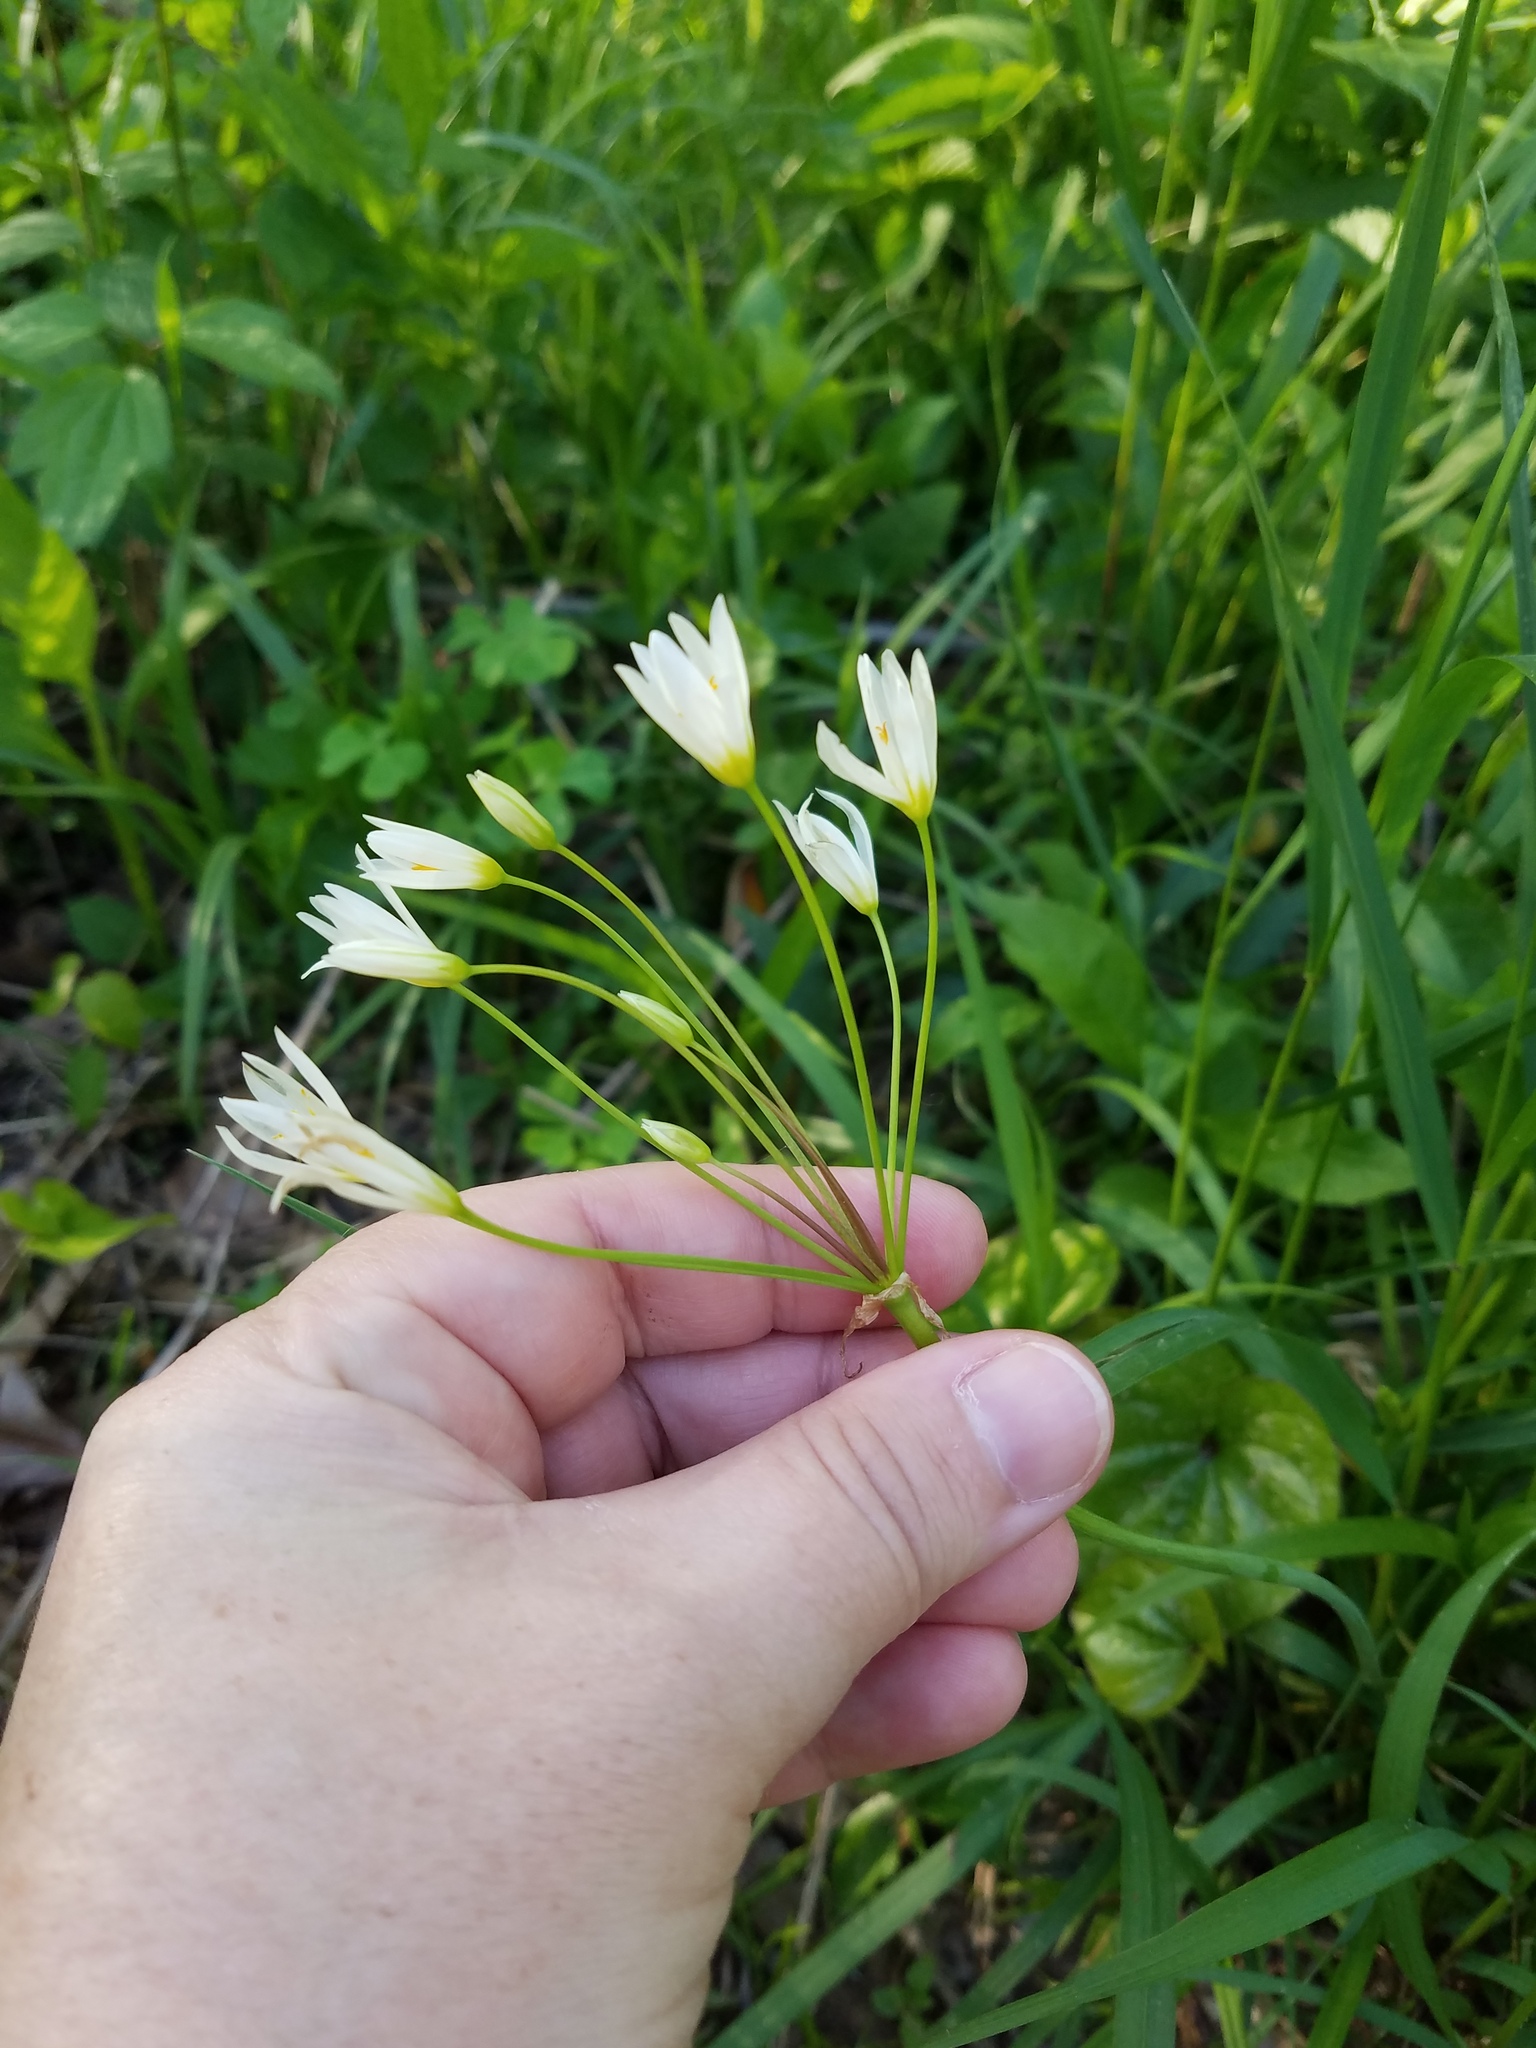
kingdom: Plantae
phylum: Tracheophyta
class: Liliopsida
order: Asparagales
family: Amaryllidaceae
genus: Nothoscordum
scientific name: Nothoscordum bivalve
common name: Crow-poison
